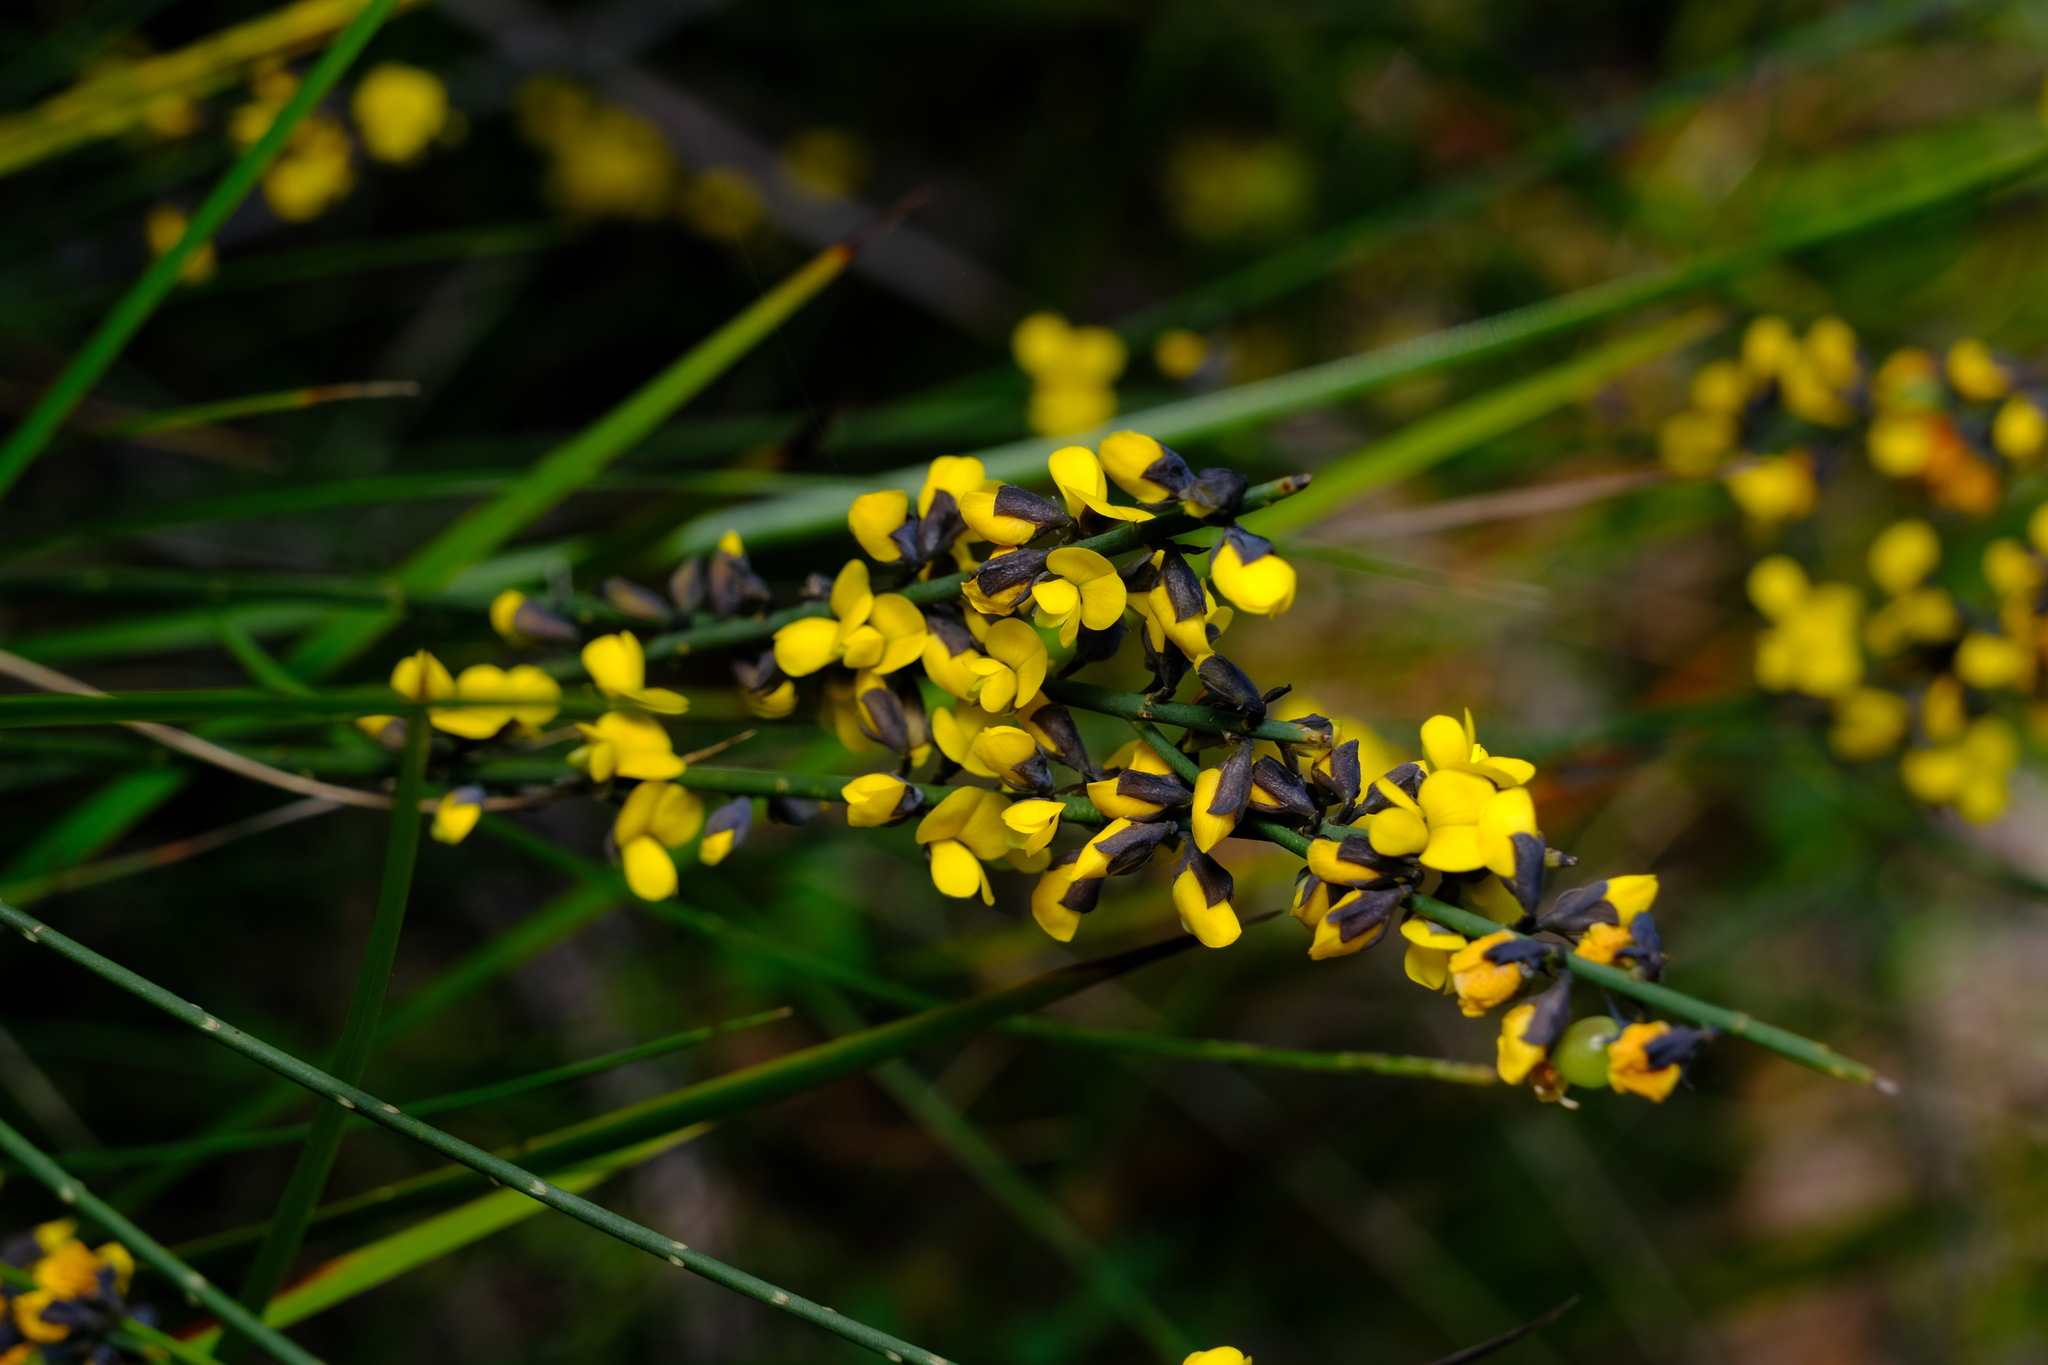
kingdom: Plantae
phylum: Tracheophyta
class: Magnoliopsida
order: Fabales
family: Fabaceae
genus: Sphaerolobium
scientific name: Sphaerolobium minus
